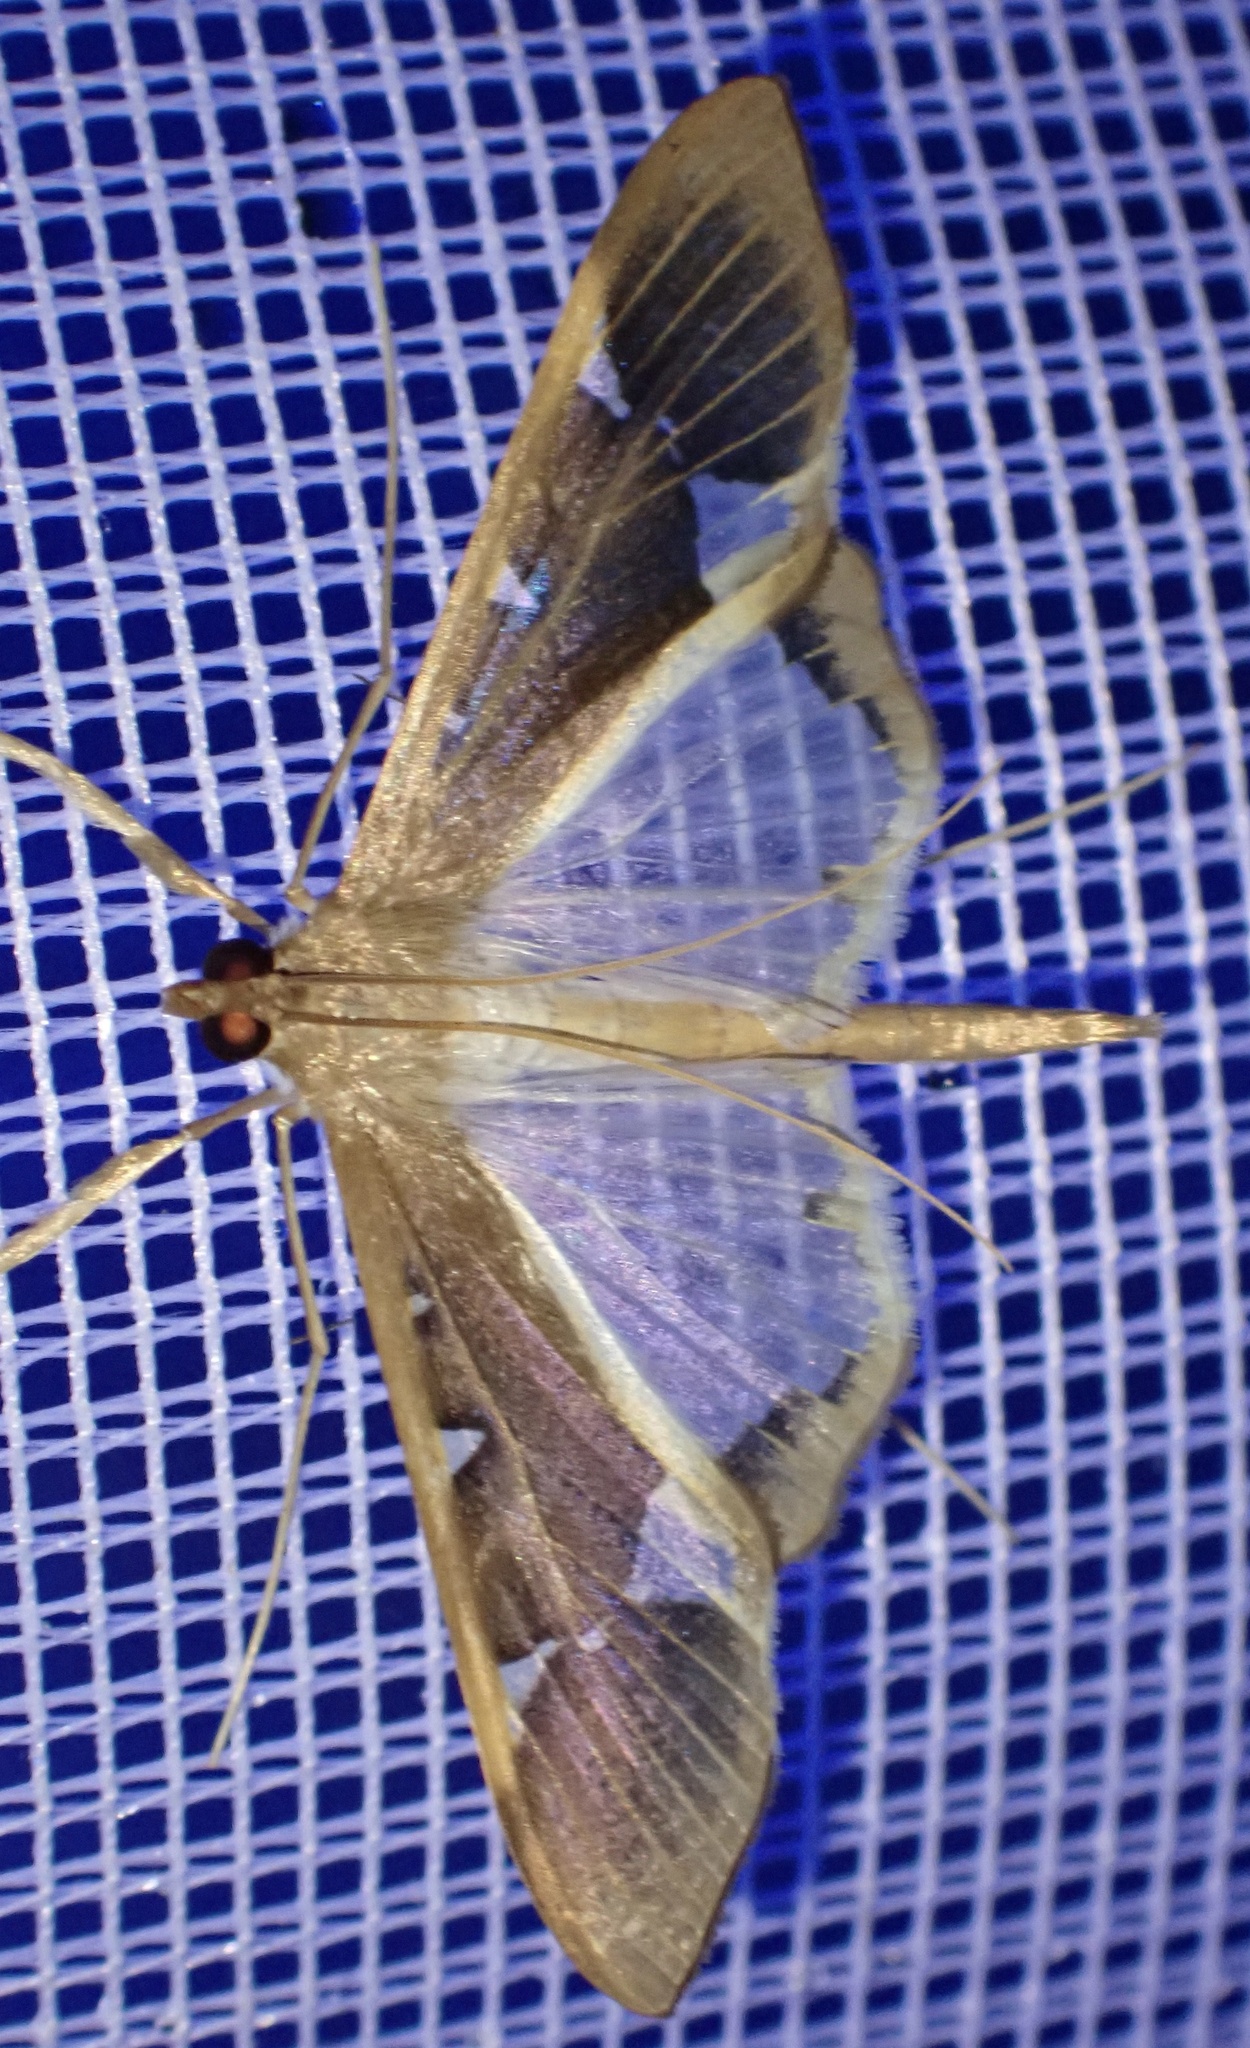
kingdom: Animalia
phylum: Arthropoda
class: Insecta
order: Lepidoptera
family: Crambidae
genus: Tipuliforma
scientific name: Tipuliforma triangulalis
